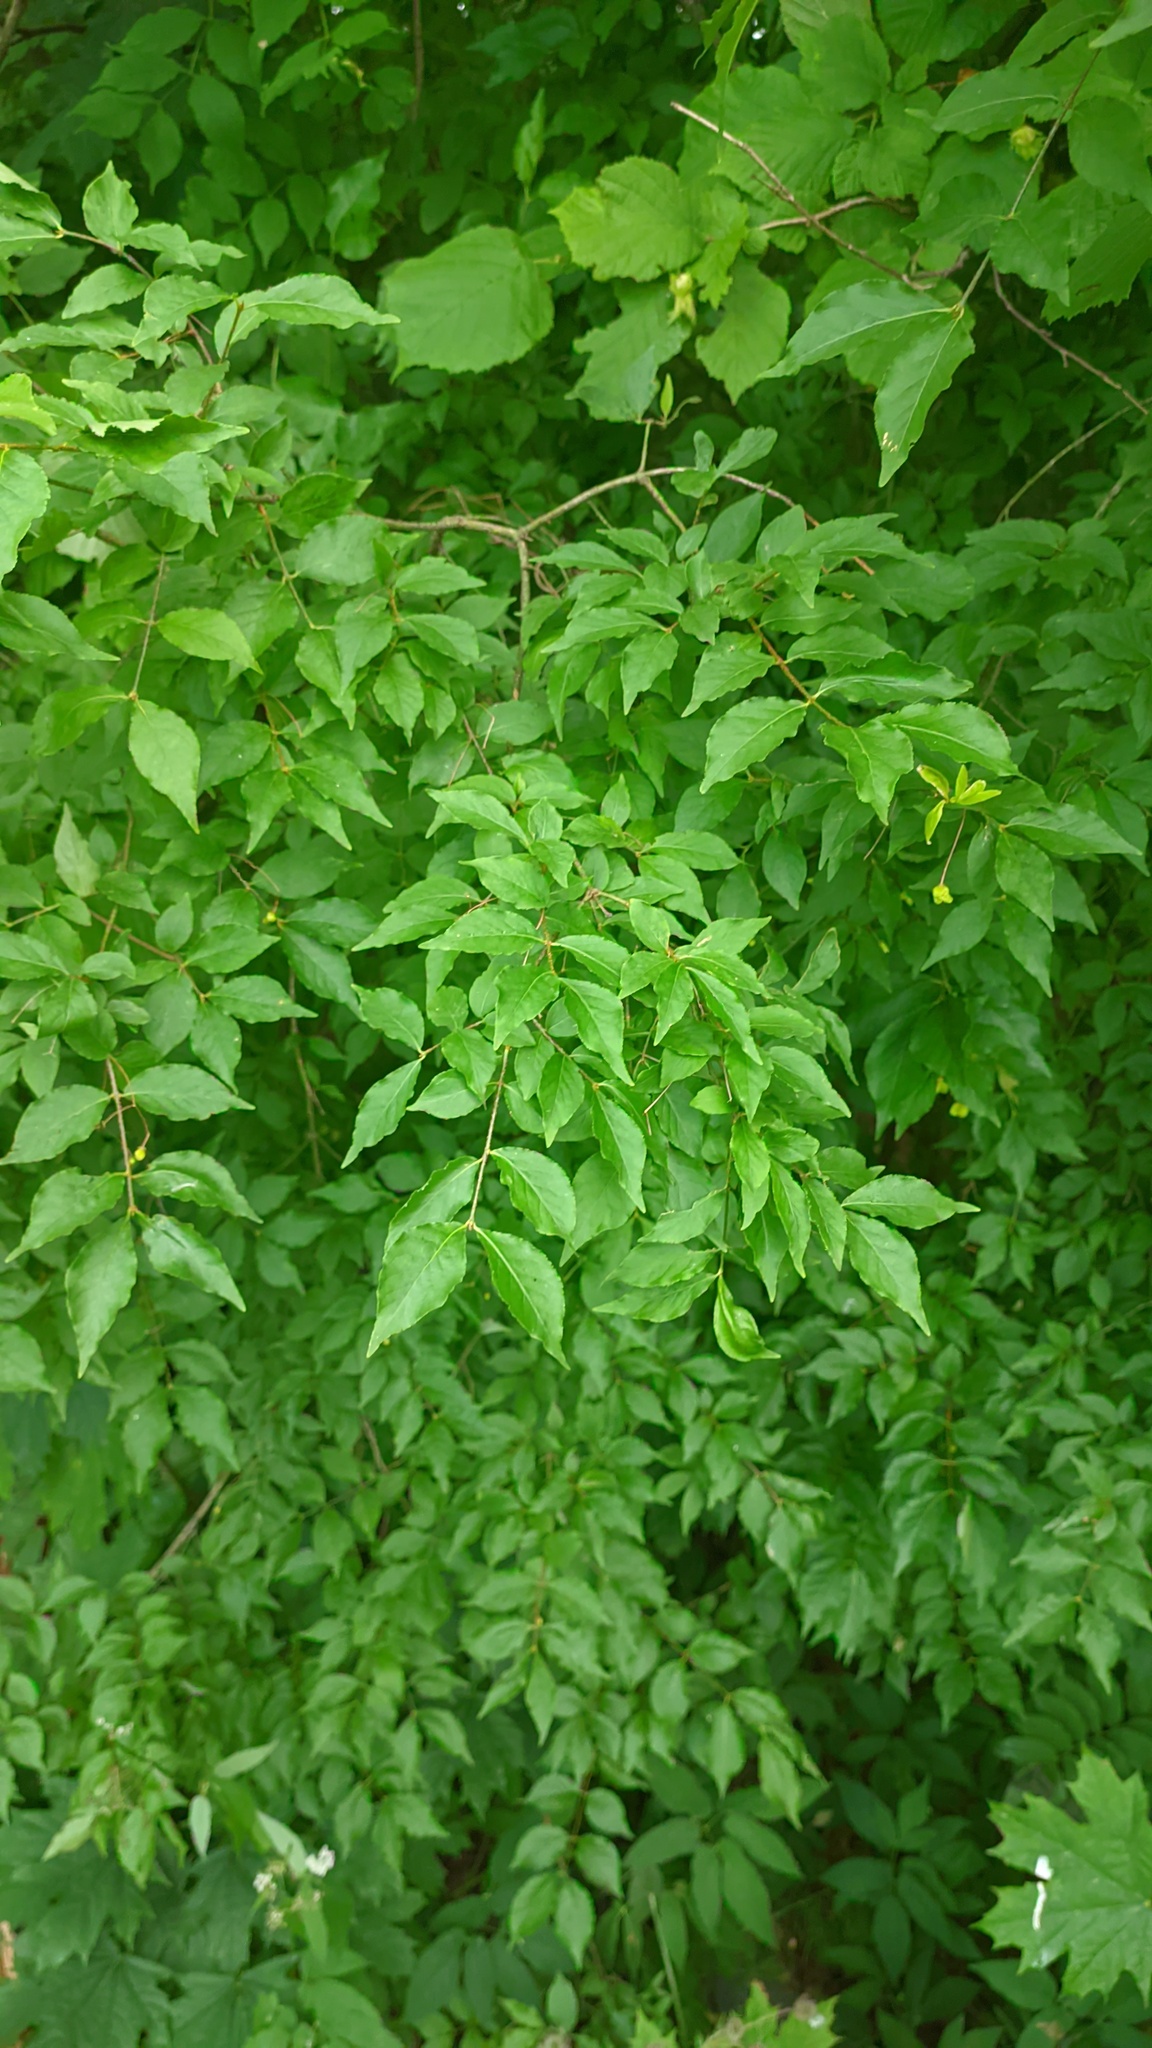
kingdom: Plantae
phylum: Tracheophyta
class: Magnoliopsida
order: Celastrales
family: Celastraceae
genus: Euonymus
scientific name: Euonymus verrucosus
